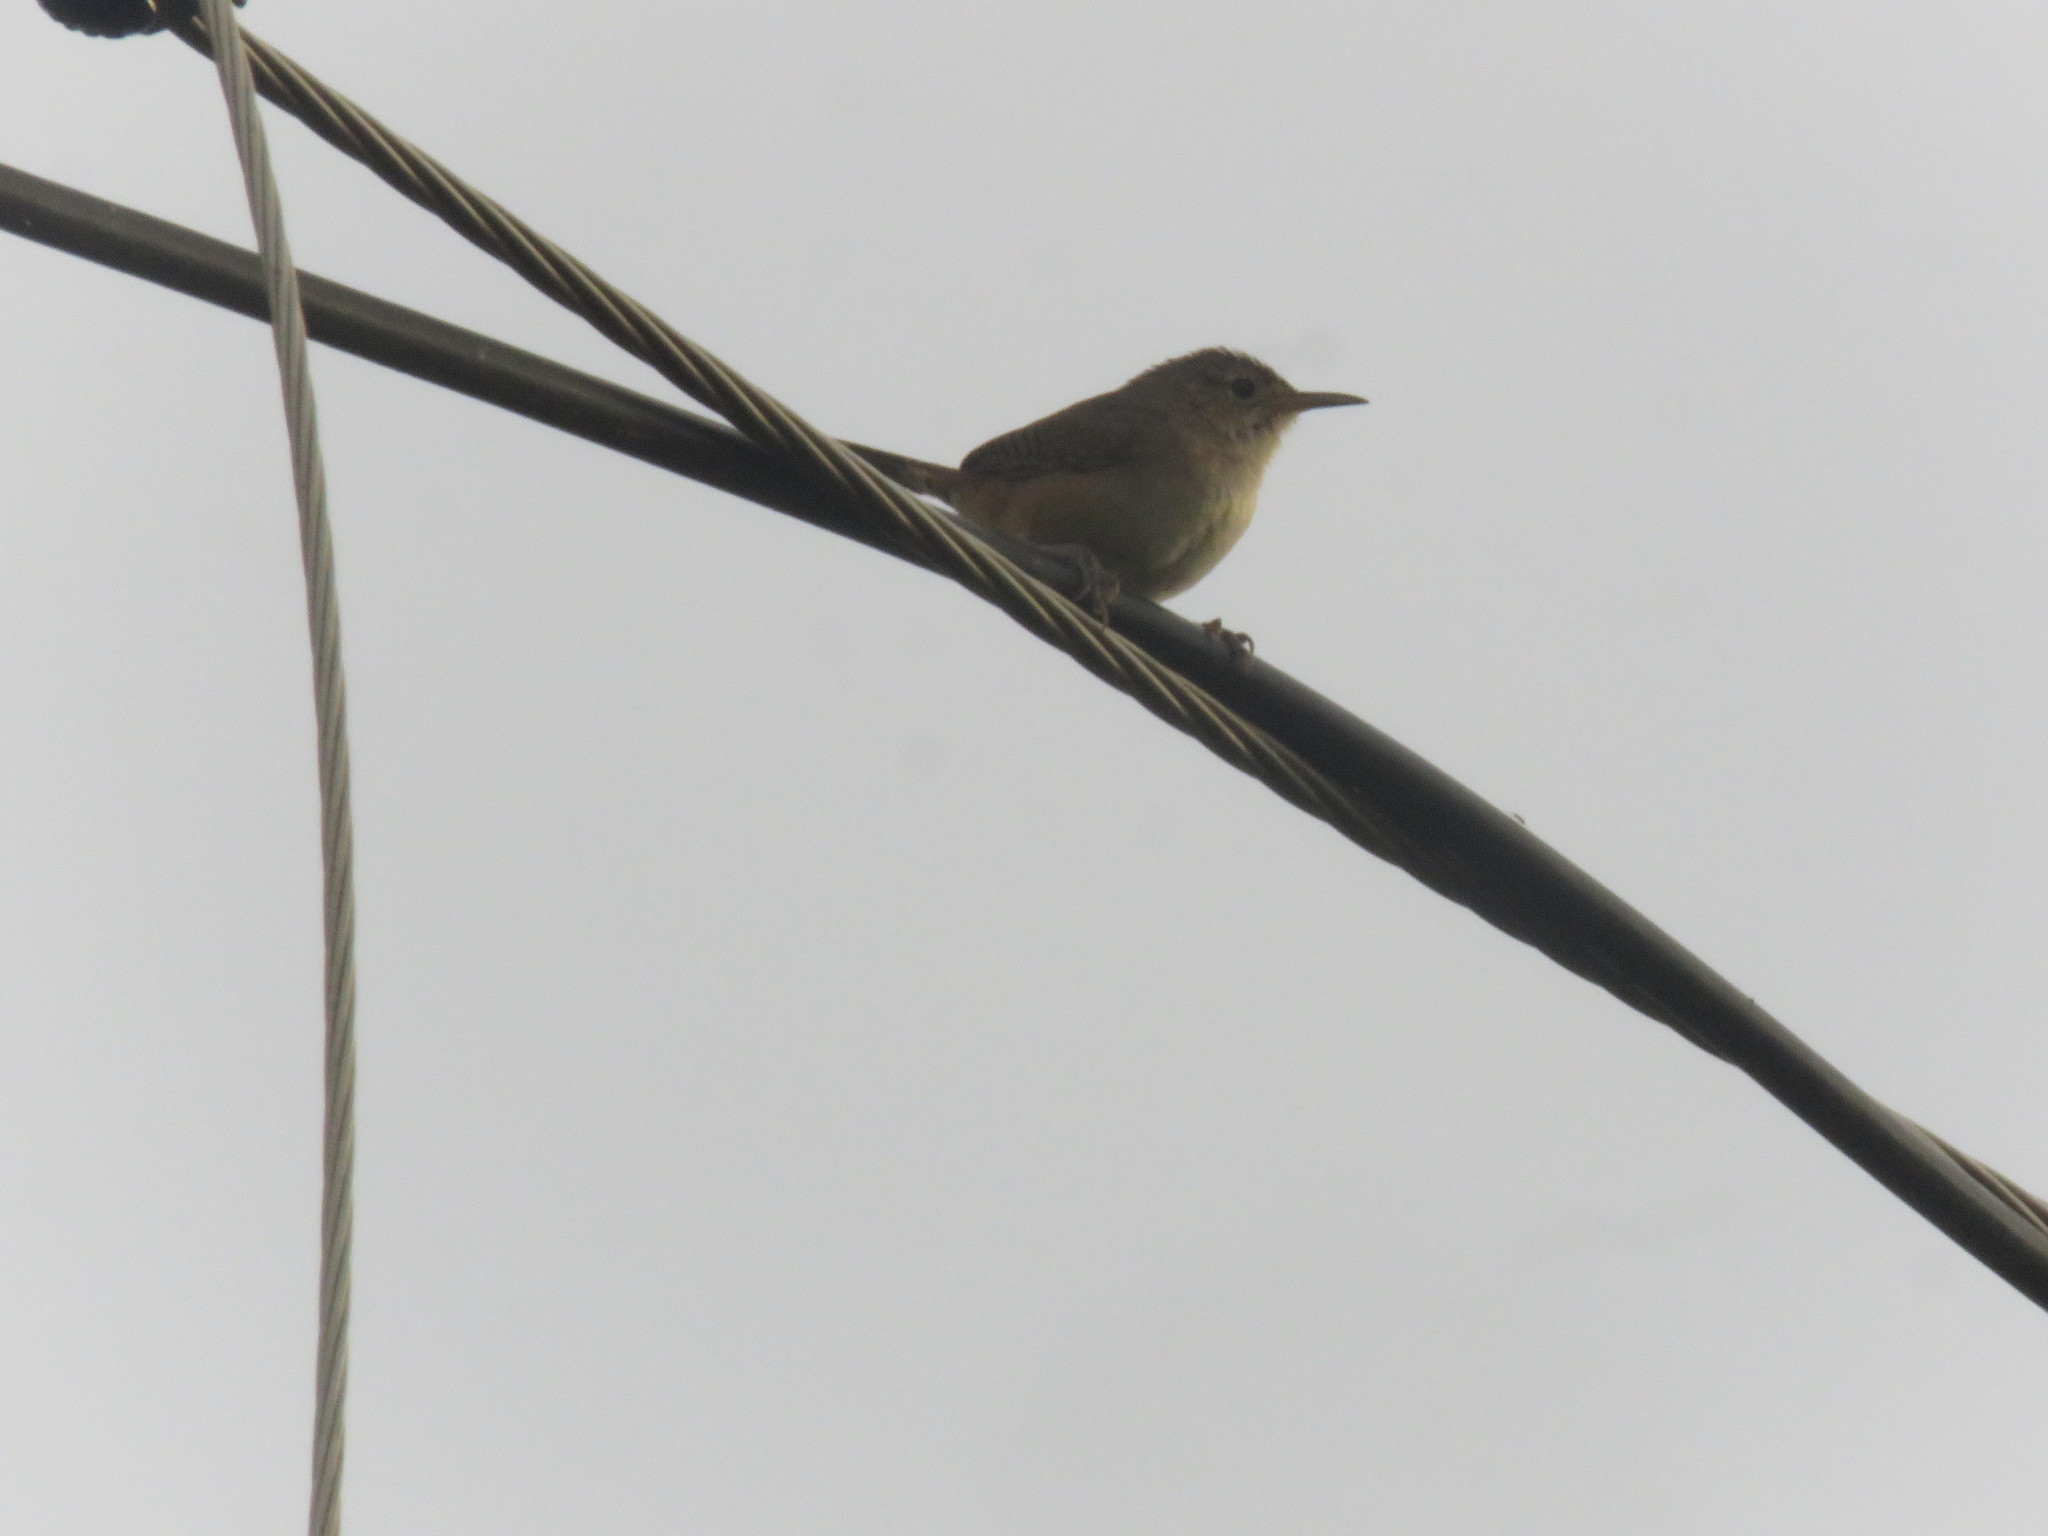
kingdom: Animalia
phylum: Chordata
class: Aves
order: Passeriformes
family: Troglodytidae
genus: Troglodytes
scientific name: Troglodytes aedon
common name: House wren
